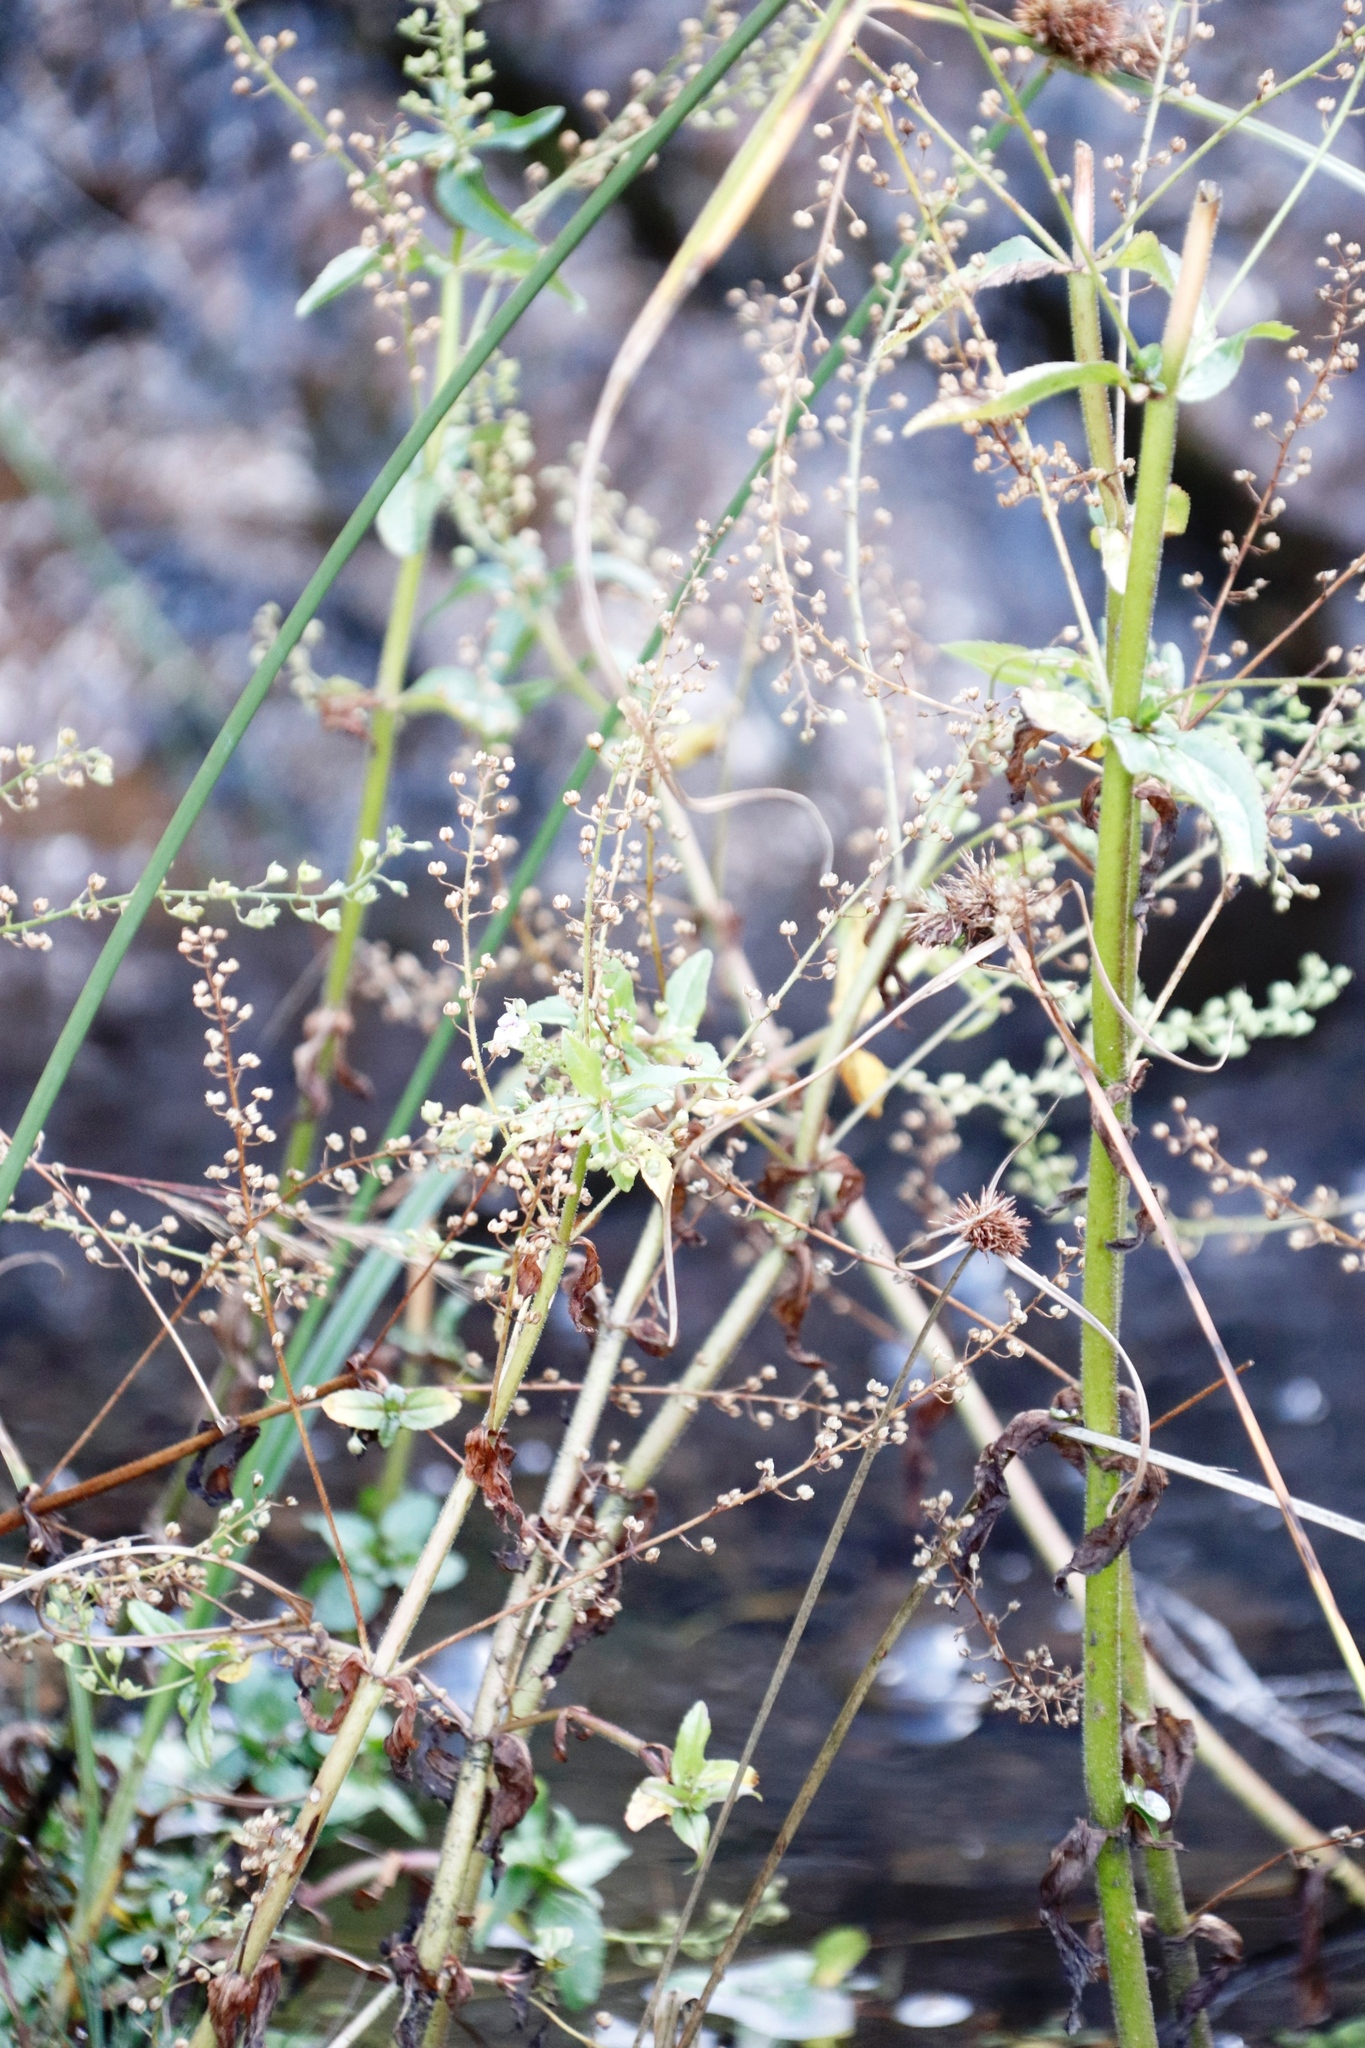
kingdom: Plantae
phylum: Tracheophyta
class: Magnoliopsida
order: Lamiales
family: Plantaginaceae
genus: Veronica
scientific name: Veronica anagallis-aquatica
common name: Water speedwell
